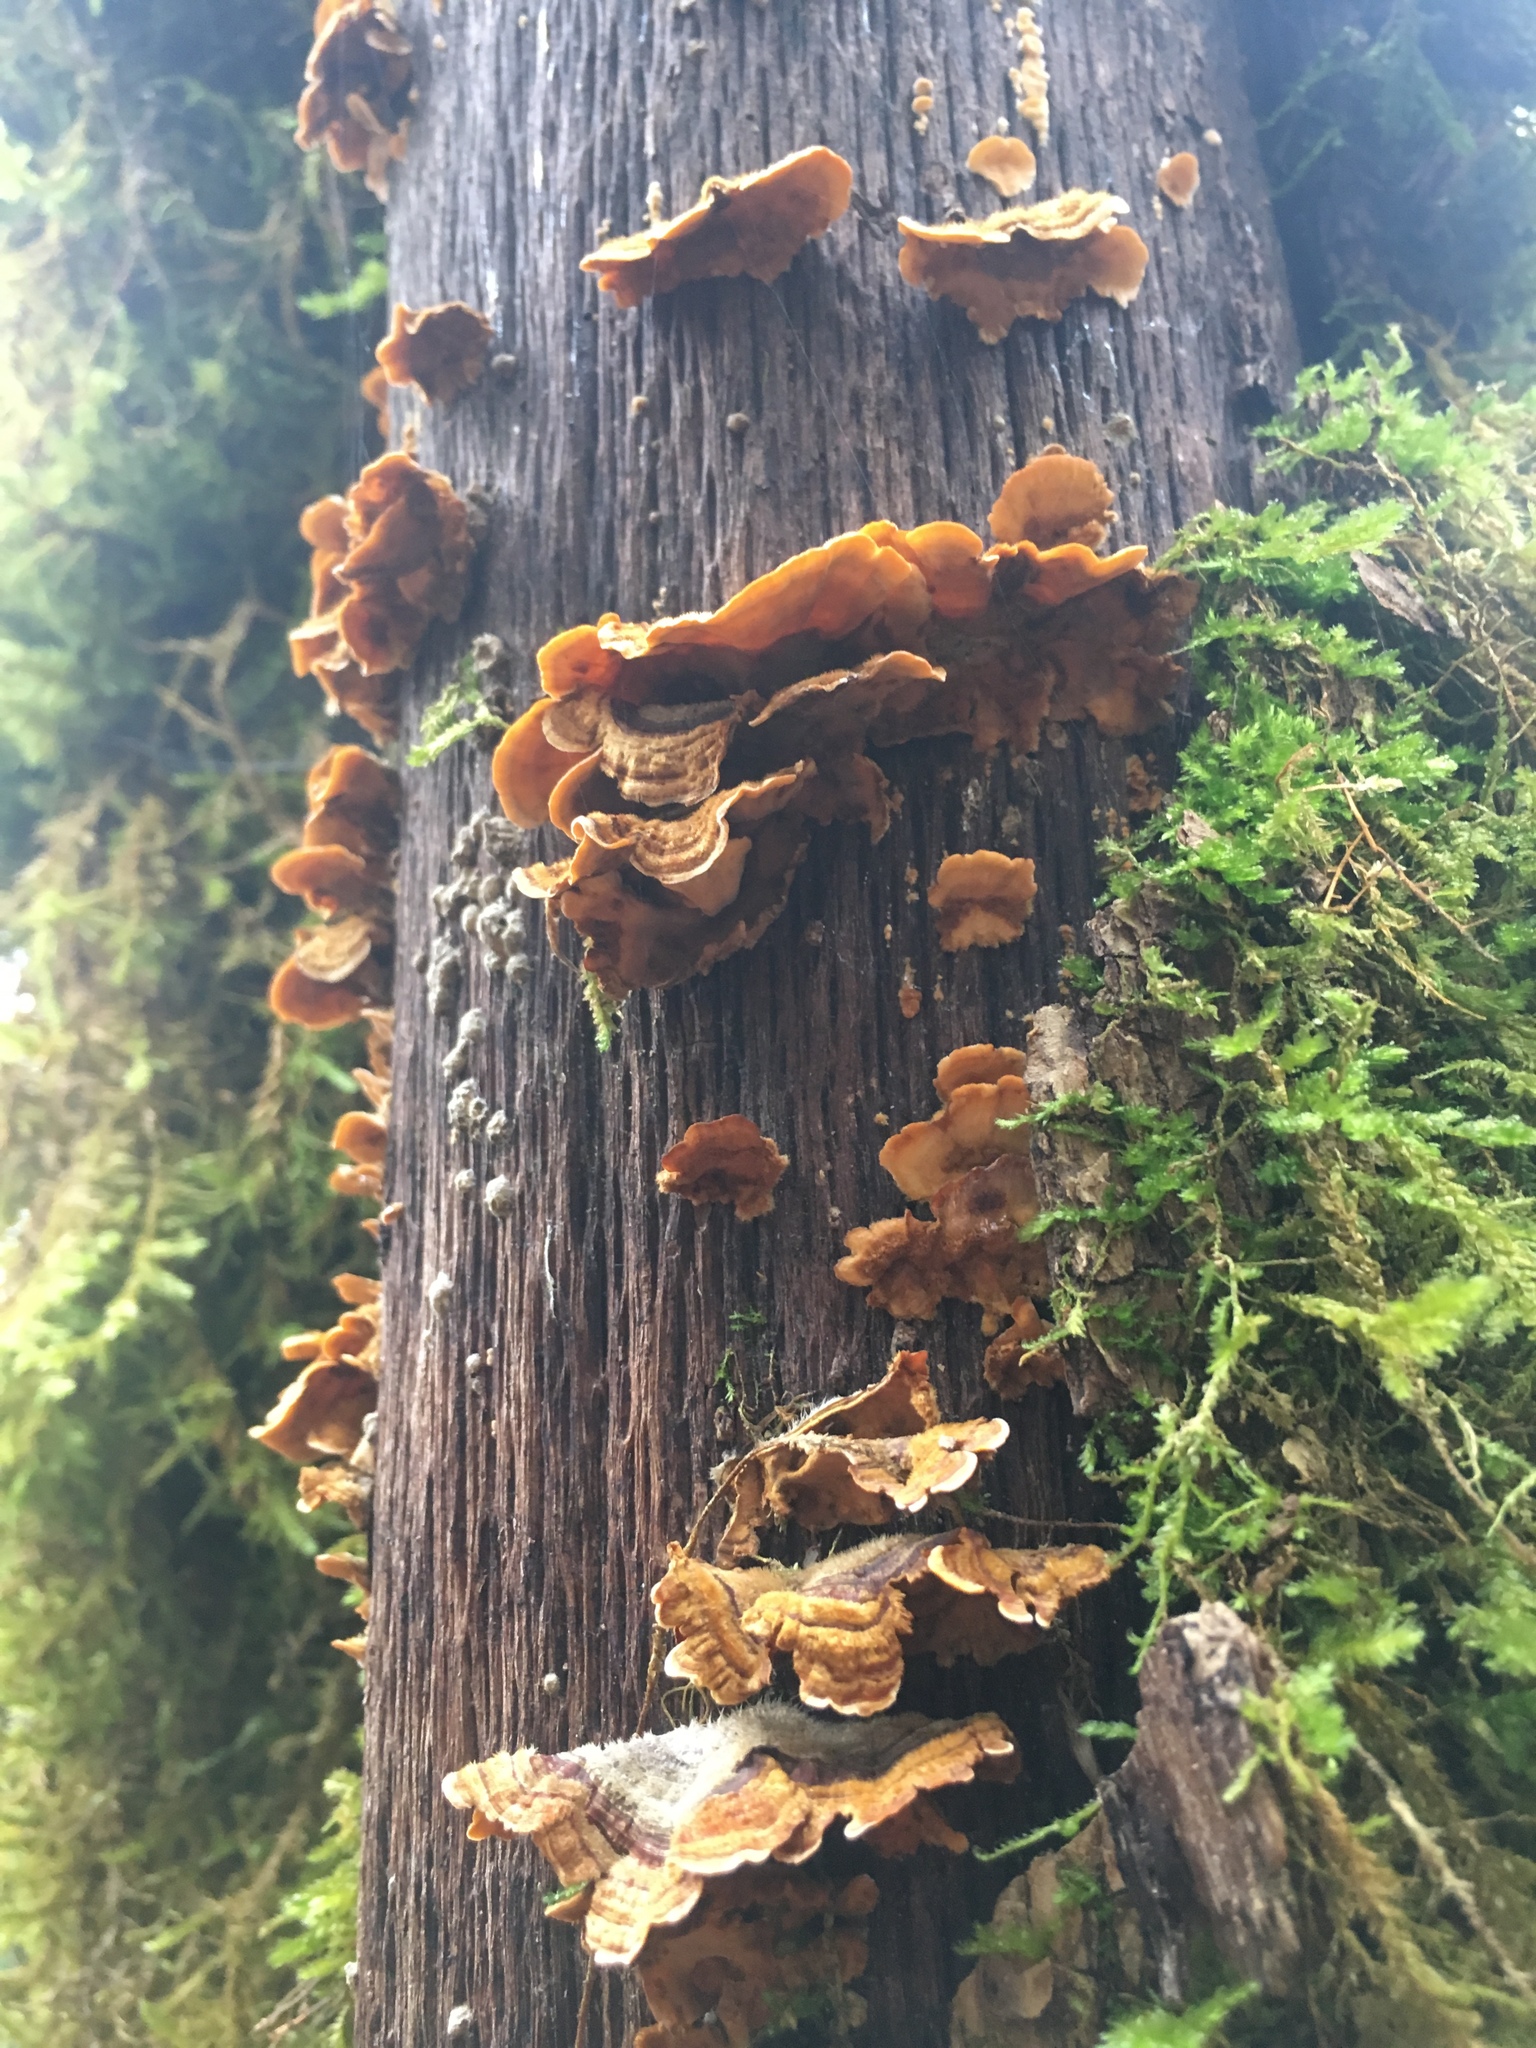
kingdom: Fungi
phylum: Basidiomycota
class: Agaricomycetes
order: Russulales
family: Stereaceae
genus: Stereum
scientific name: Stereum hirsutum
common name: Hairy curtain crust
